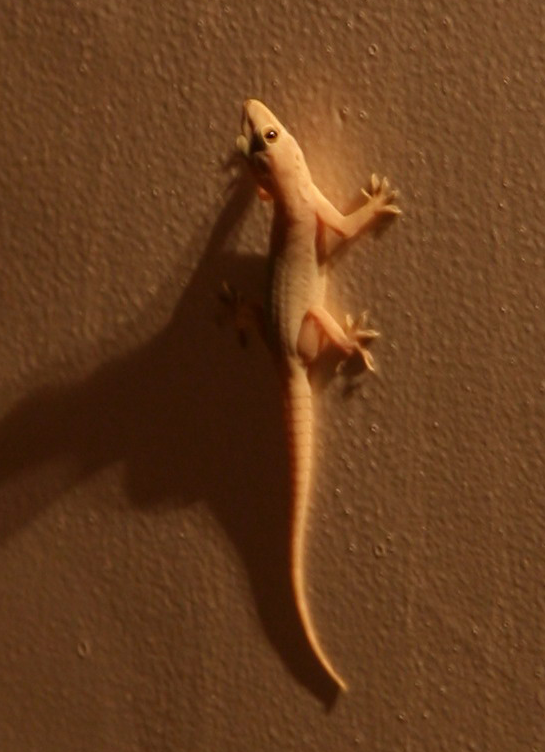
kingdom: Animalia
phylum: Chordata
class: Squamata
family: Gekkonidae
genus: Hemidactylus
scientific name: Hemidactylus flaviviridis
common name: Northern house gecko
